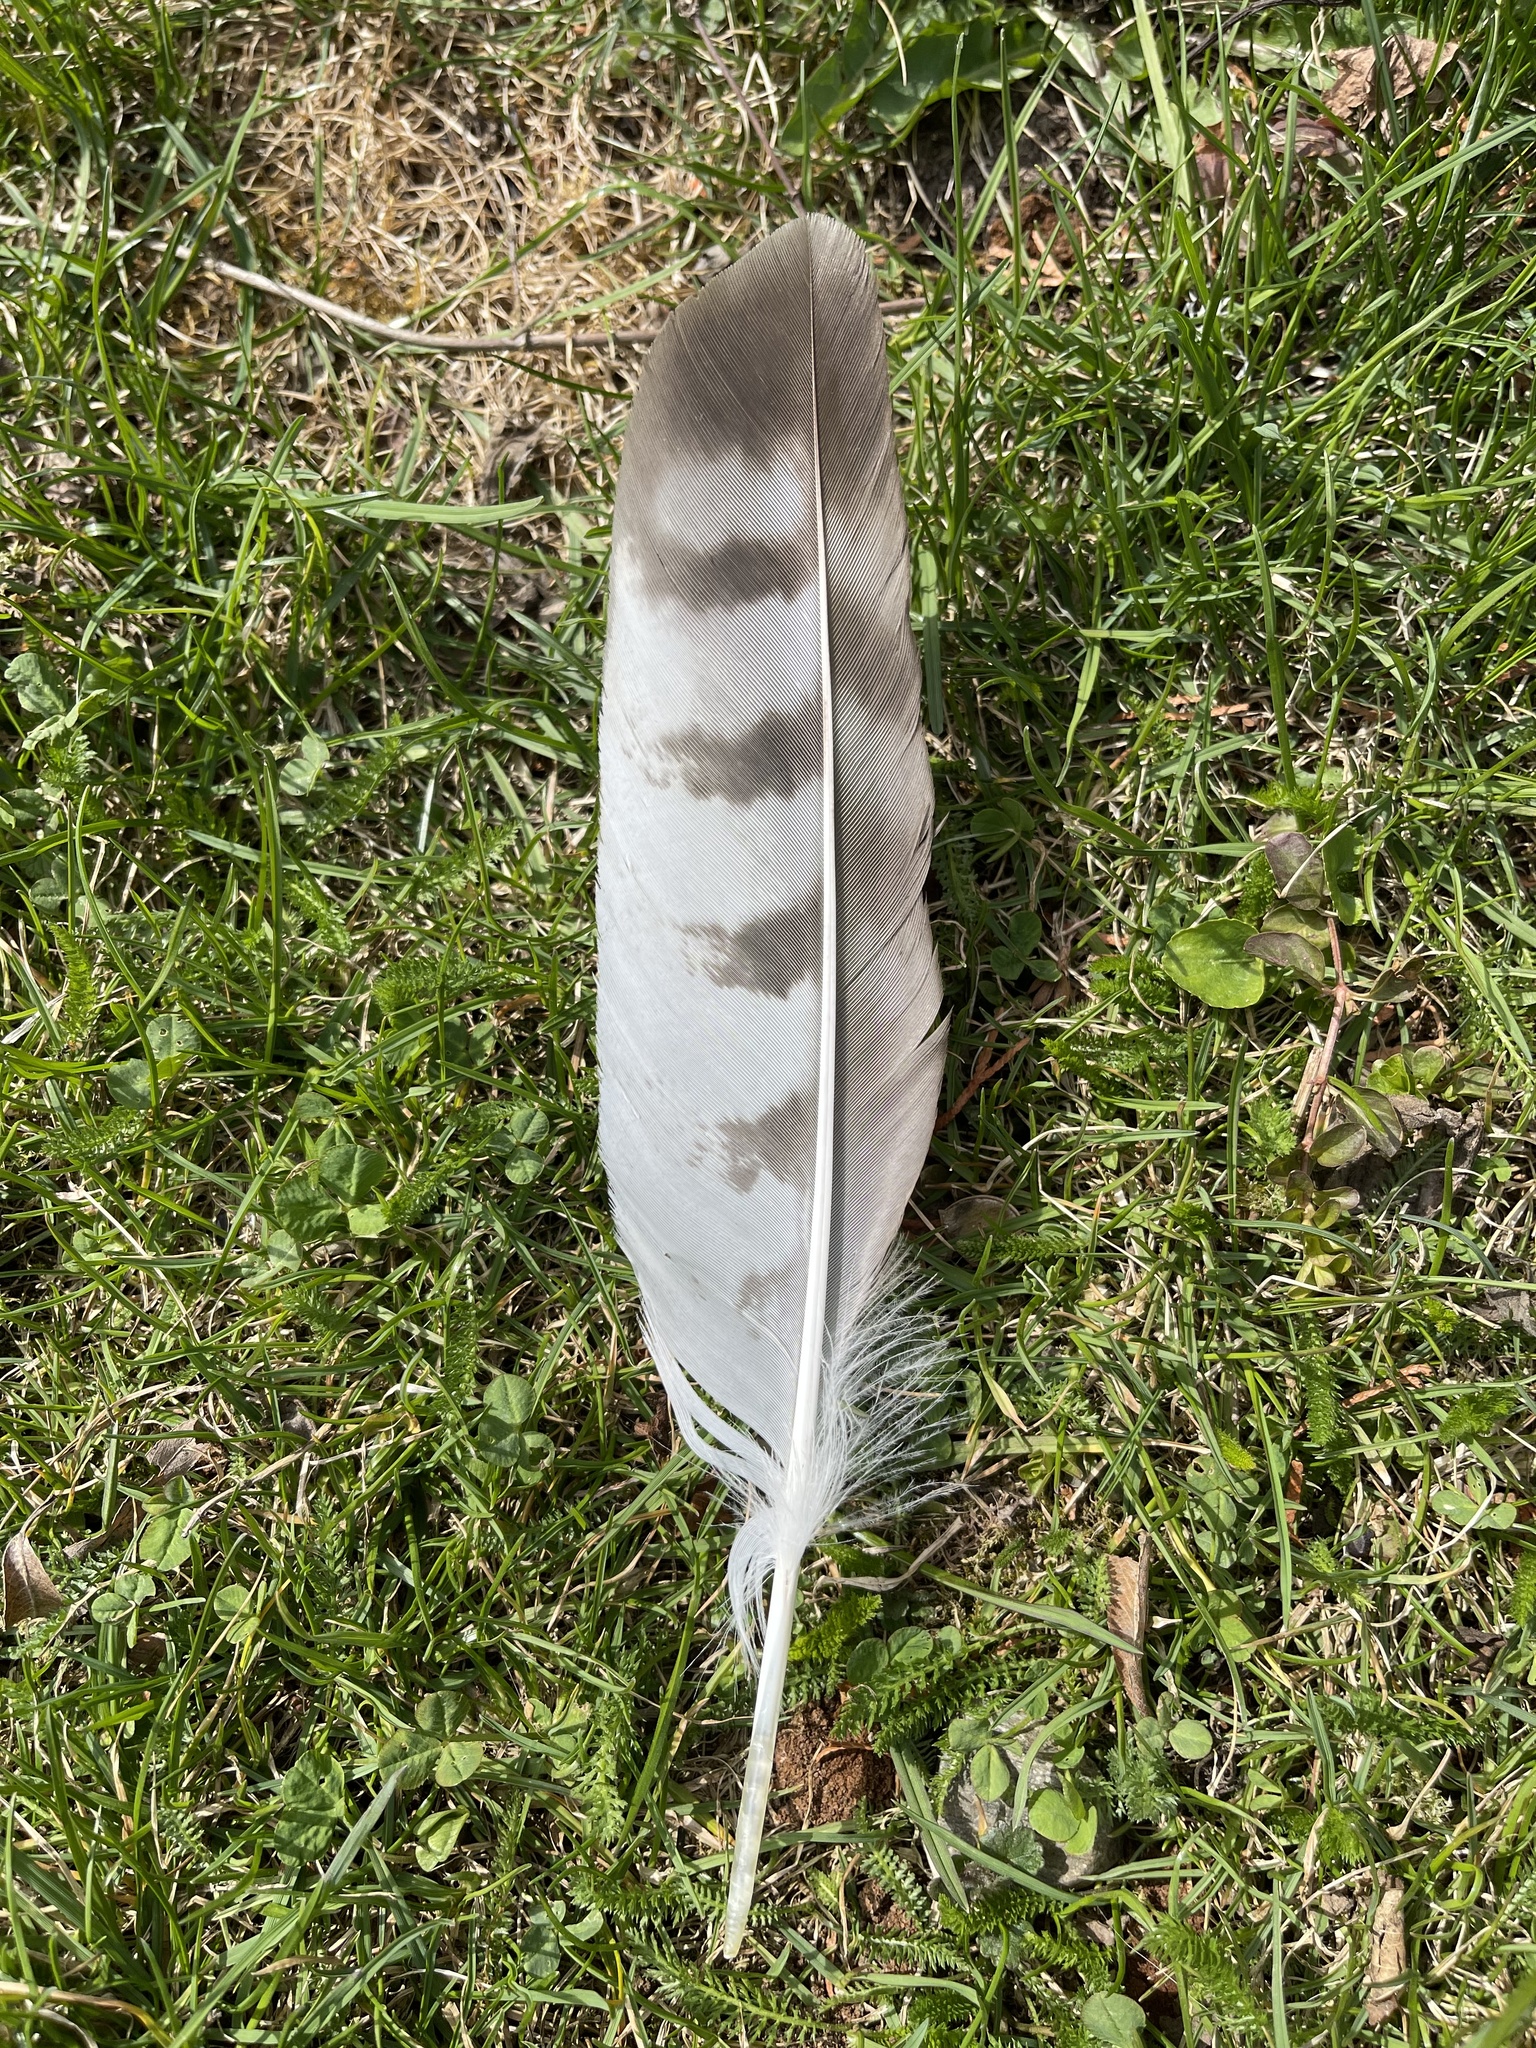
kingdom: Animalia
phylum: Chordata
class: Aves
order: Accipitriformes
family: Accipitridae
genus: Buteo
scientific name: Buteo buteo
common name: Common buzzard
